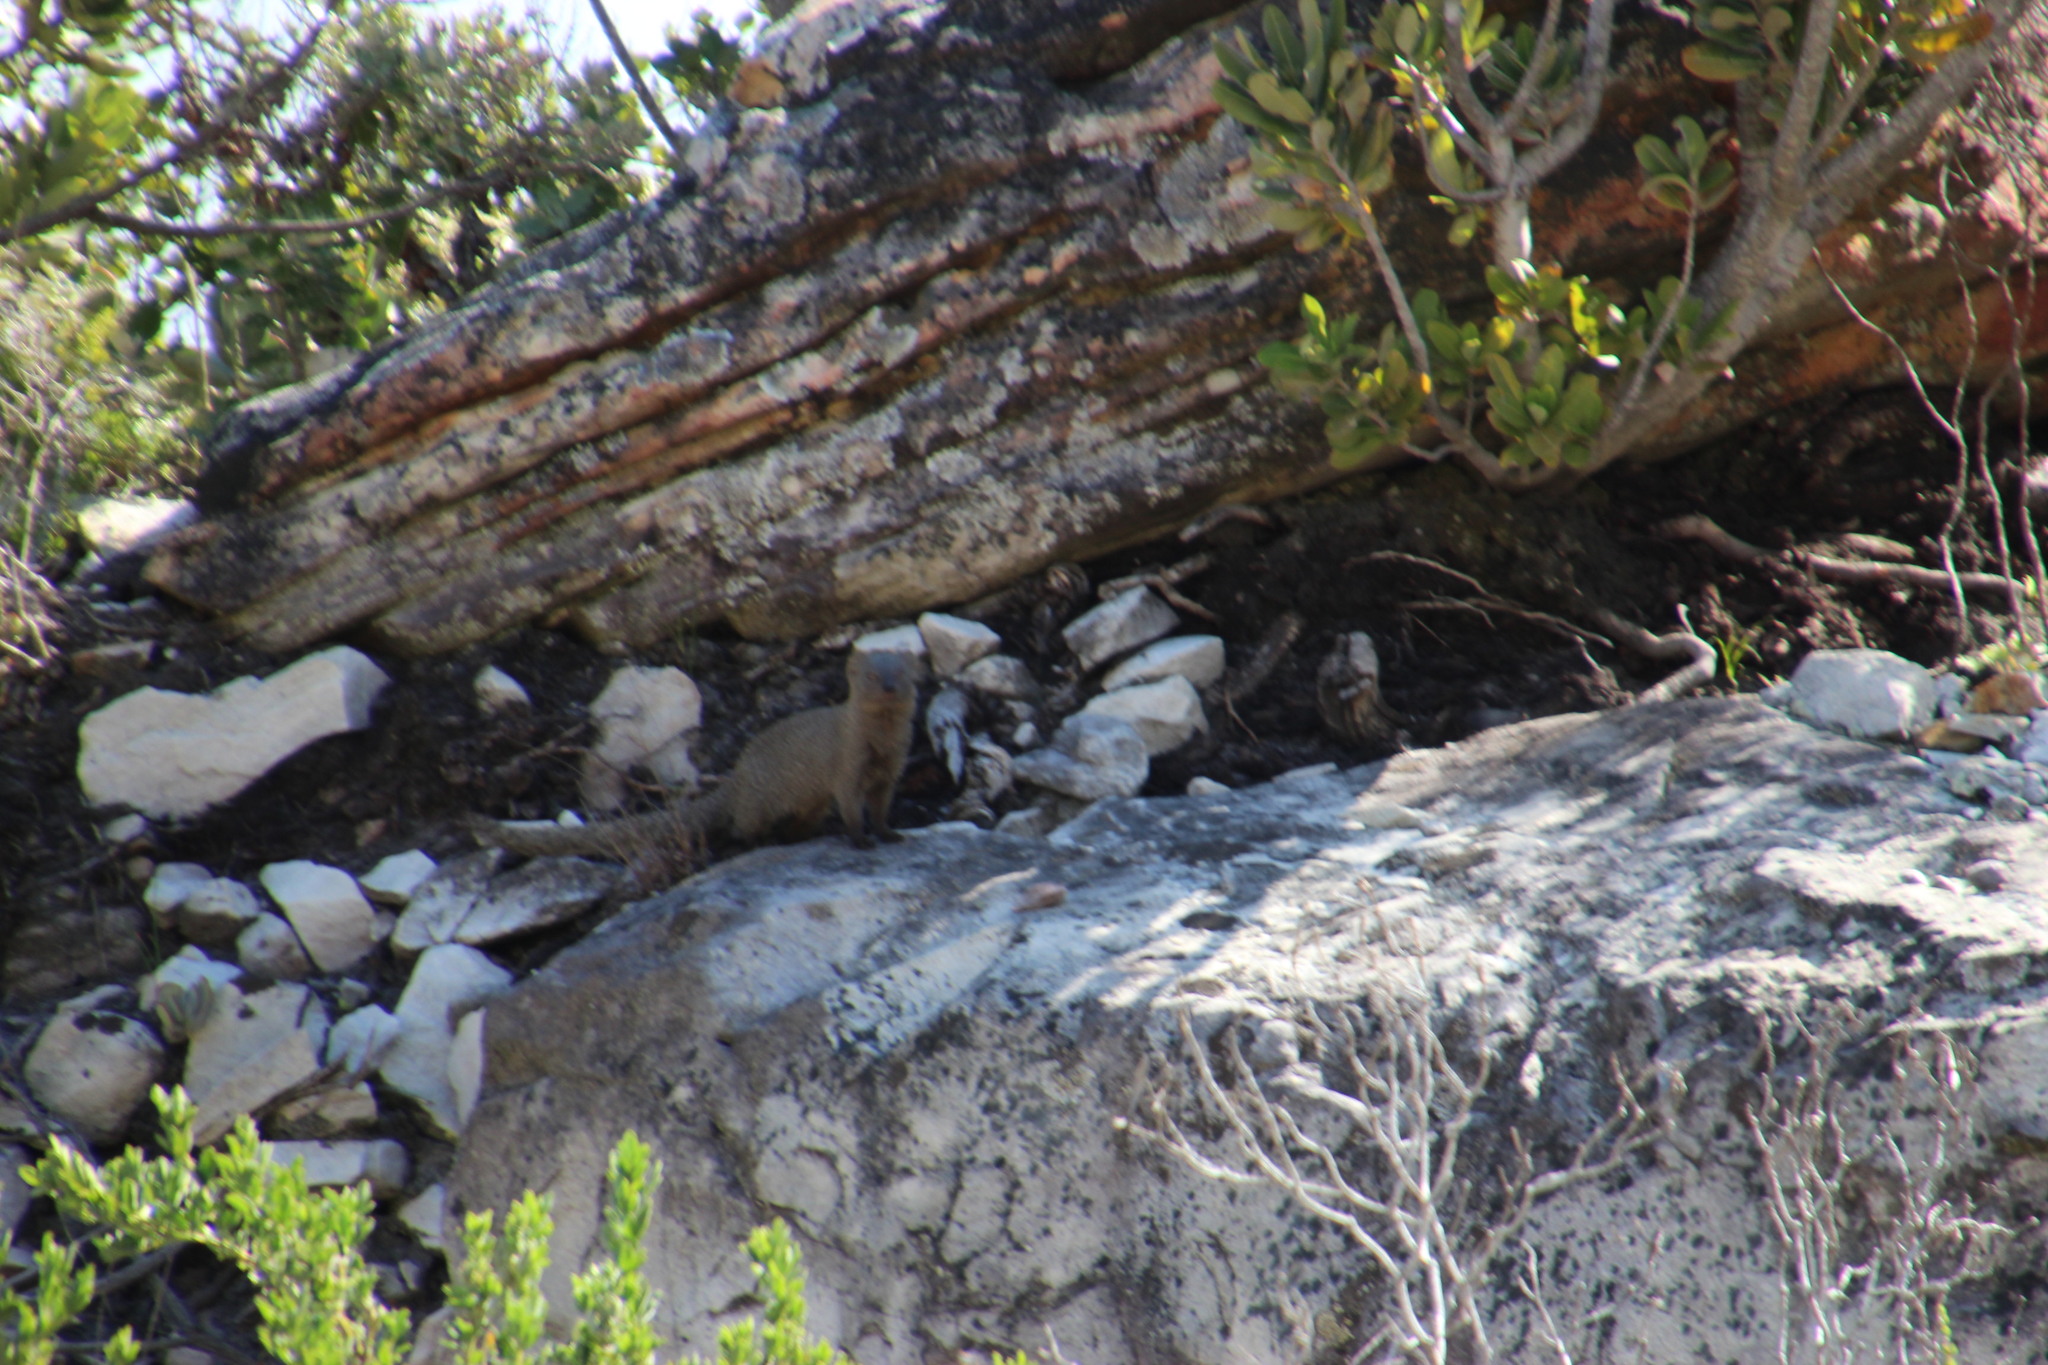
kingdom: Animalia
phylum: Chordata
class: Mammalia
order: Carnivora
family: Herpestidae
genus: Galerella
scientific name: Galerella pulverulenta
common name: Cape gray mongoose
